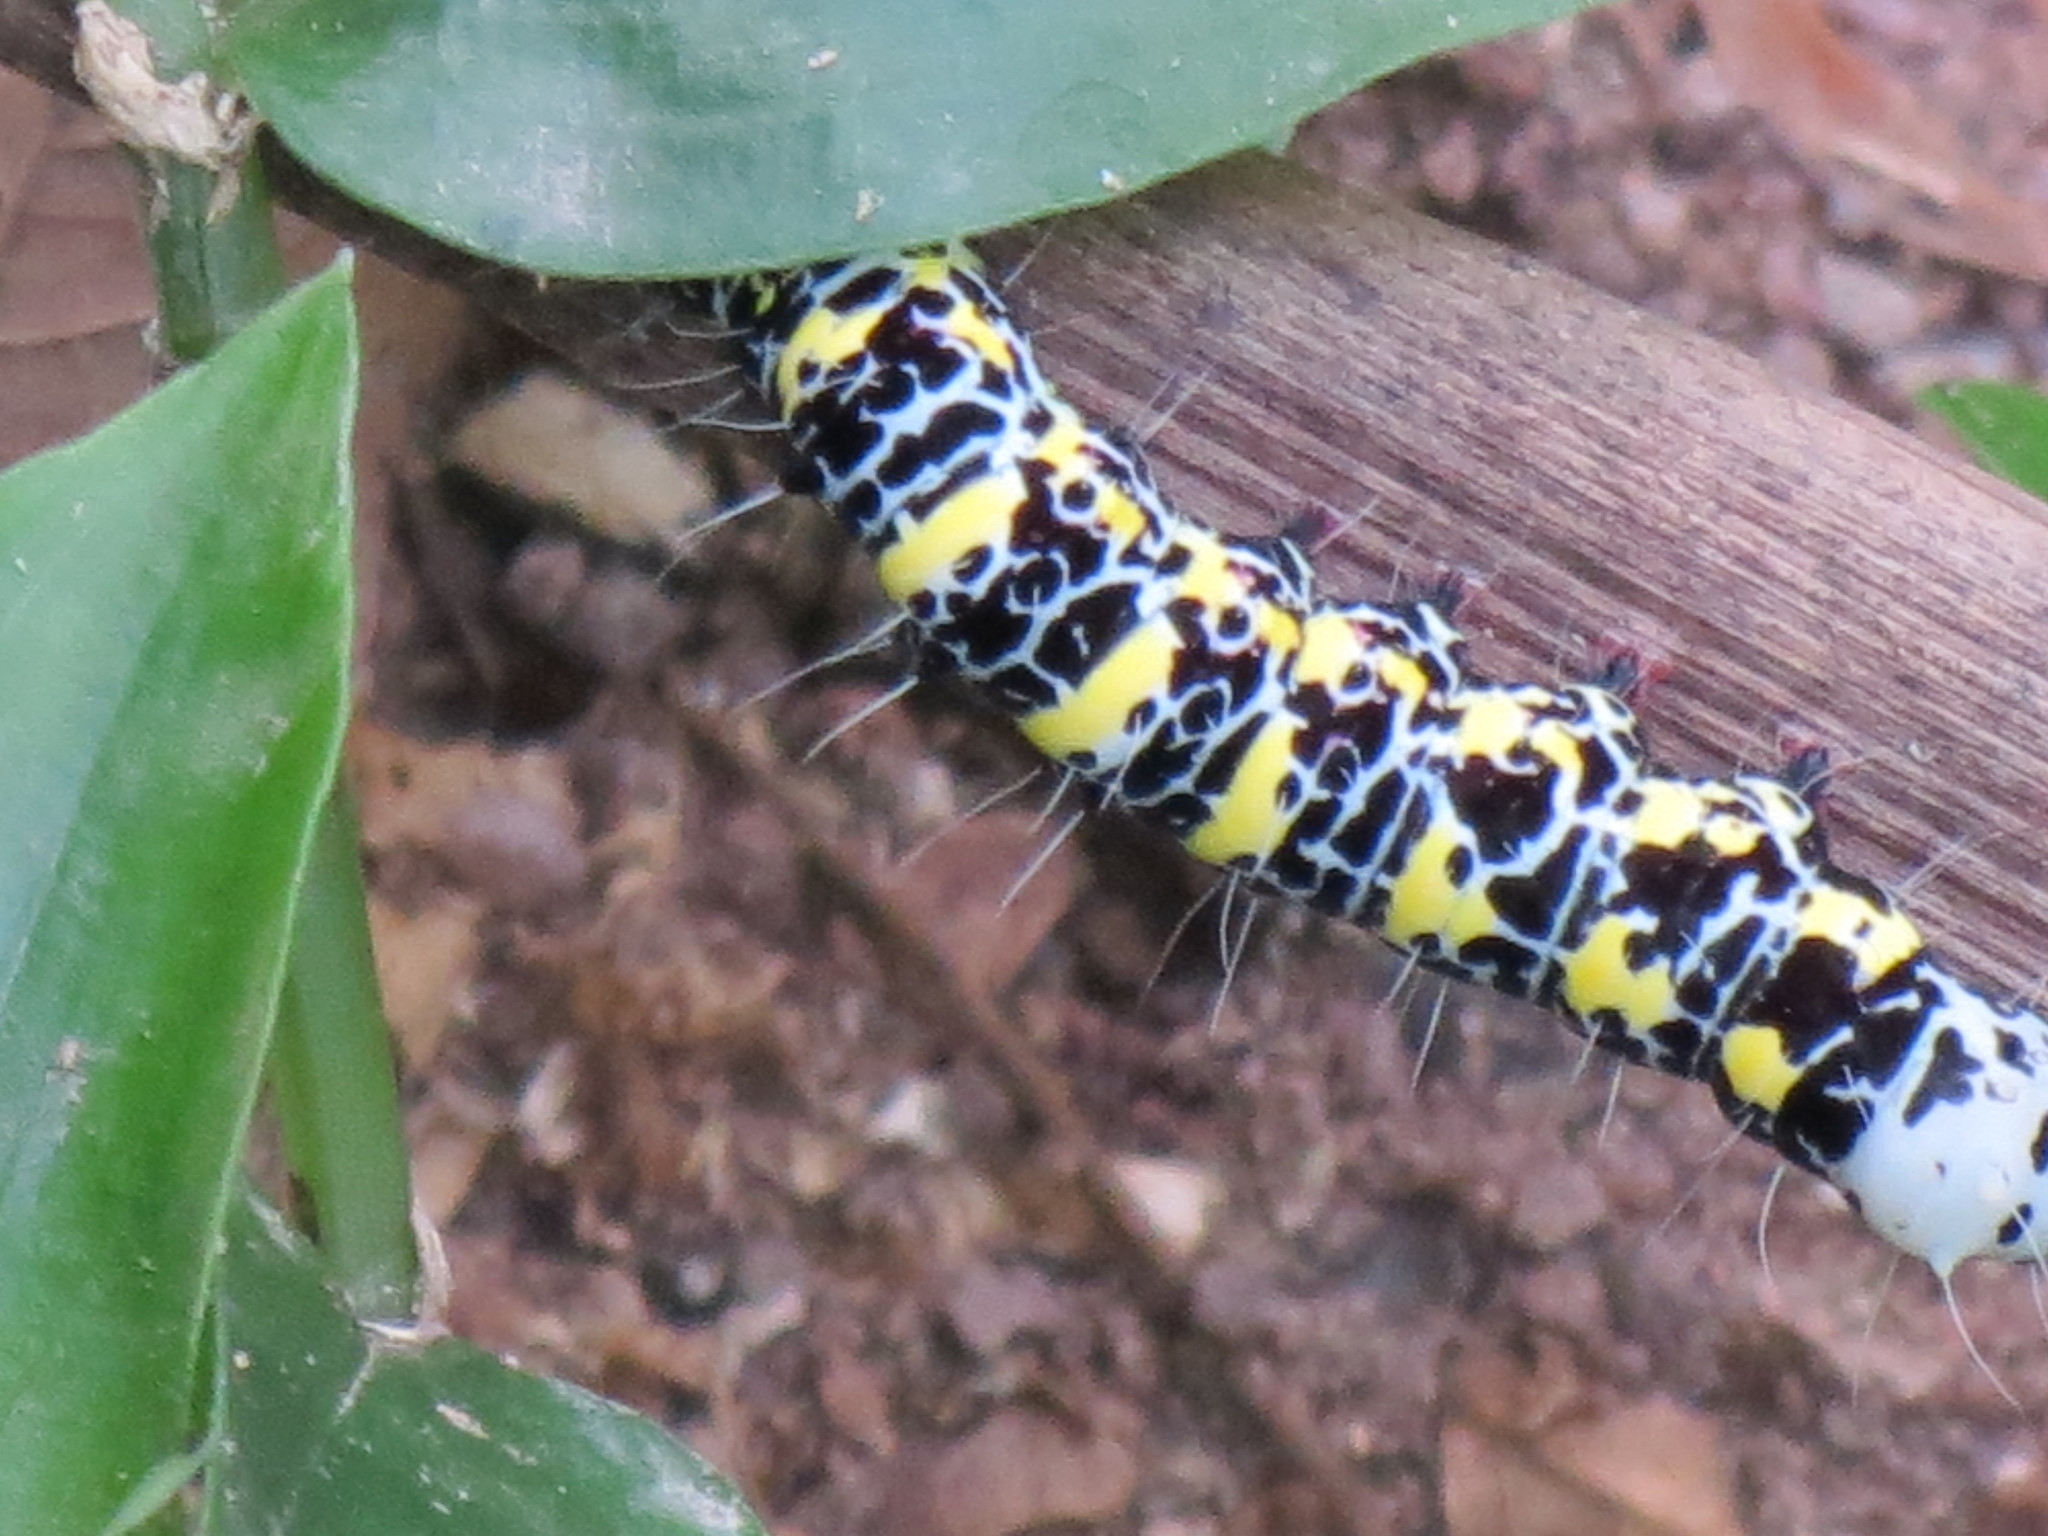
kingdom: Animalia
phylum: Arthropoda
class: Insecta
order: Lepidoptera
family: Noctuidae
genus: Callyna
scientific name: Callyna decora
